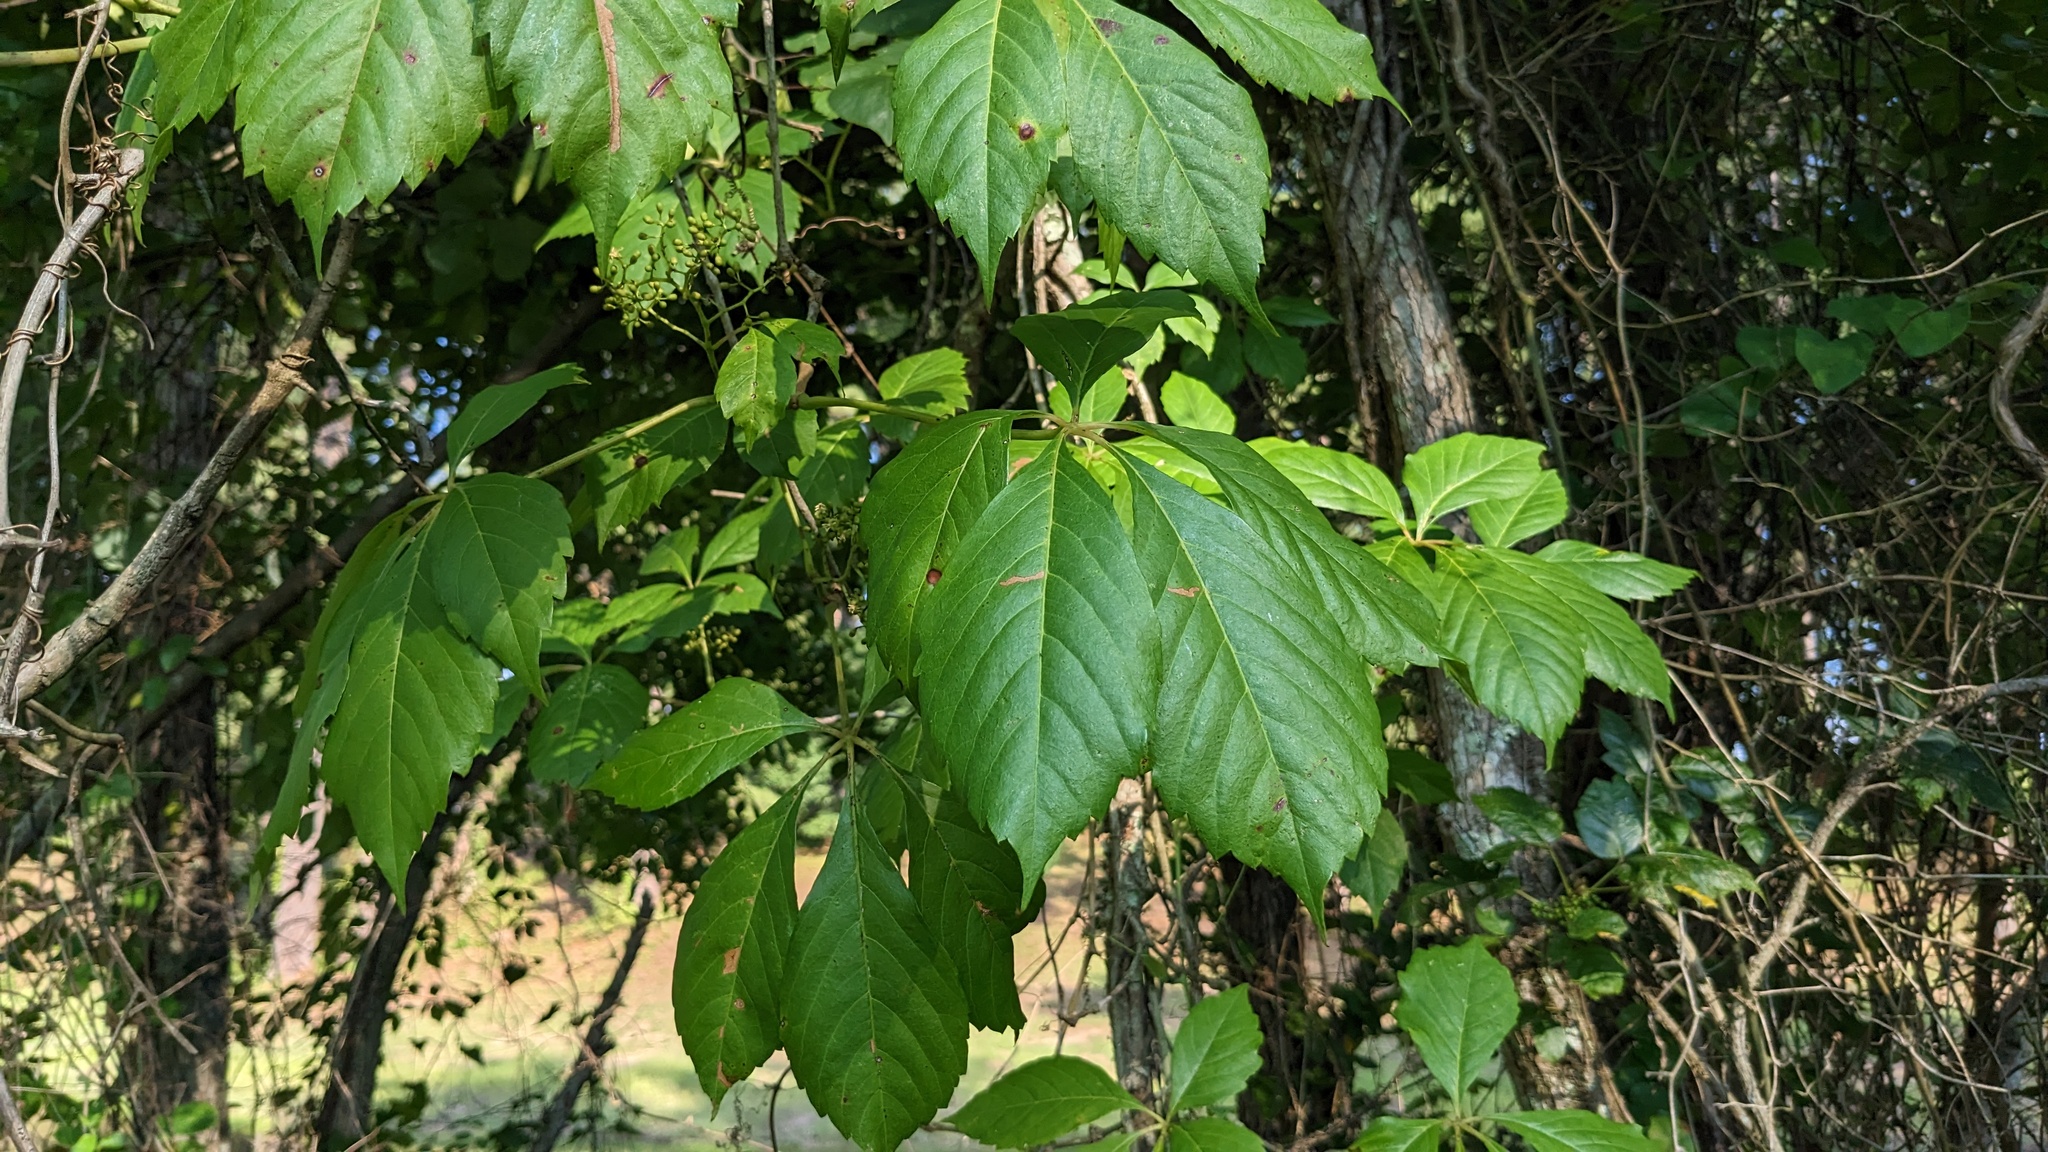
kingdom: Plantae
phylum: Tracheophyta
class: Magnoliopsida
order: Vitales
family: Vitaceae
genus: Parthenocissus
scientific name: Parthenocissus quinquefolia
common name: Virginia-creeper
